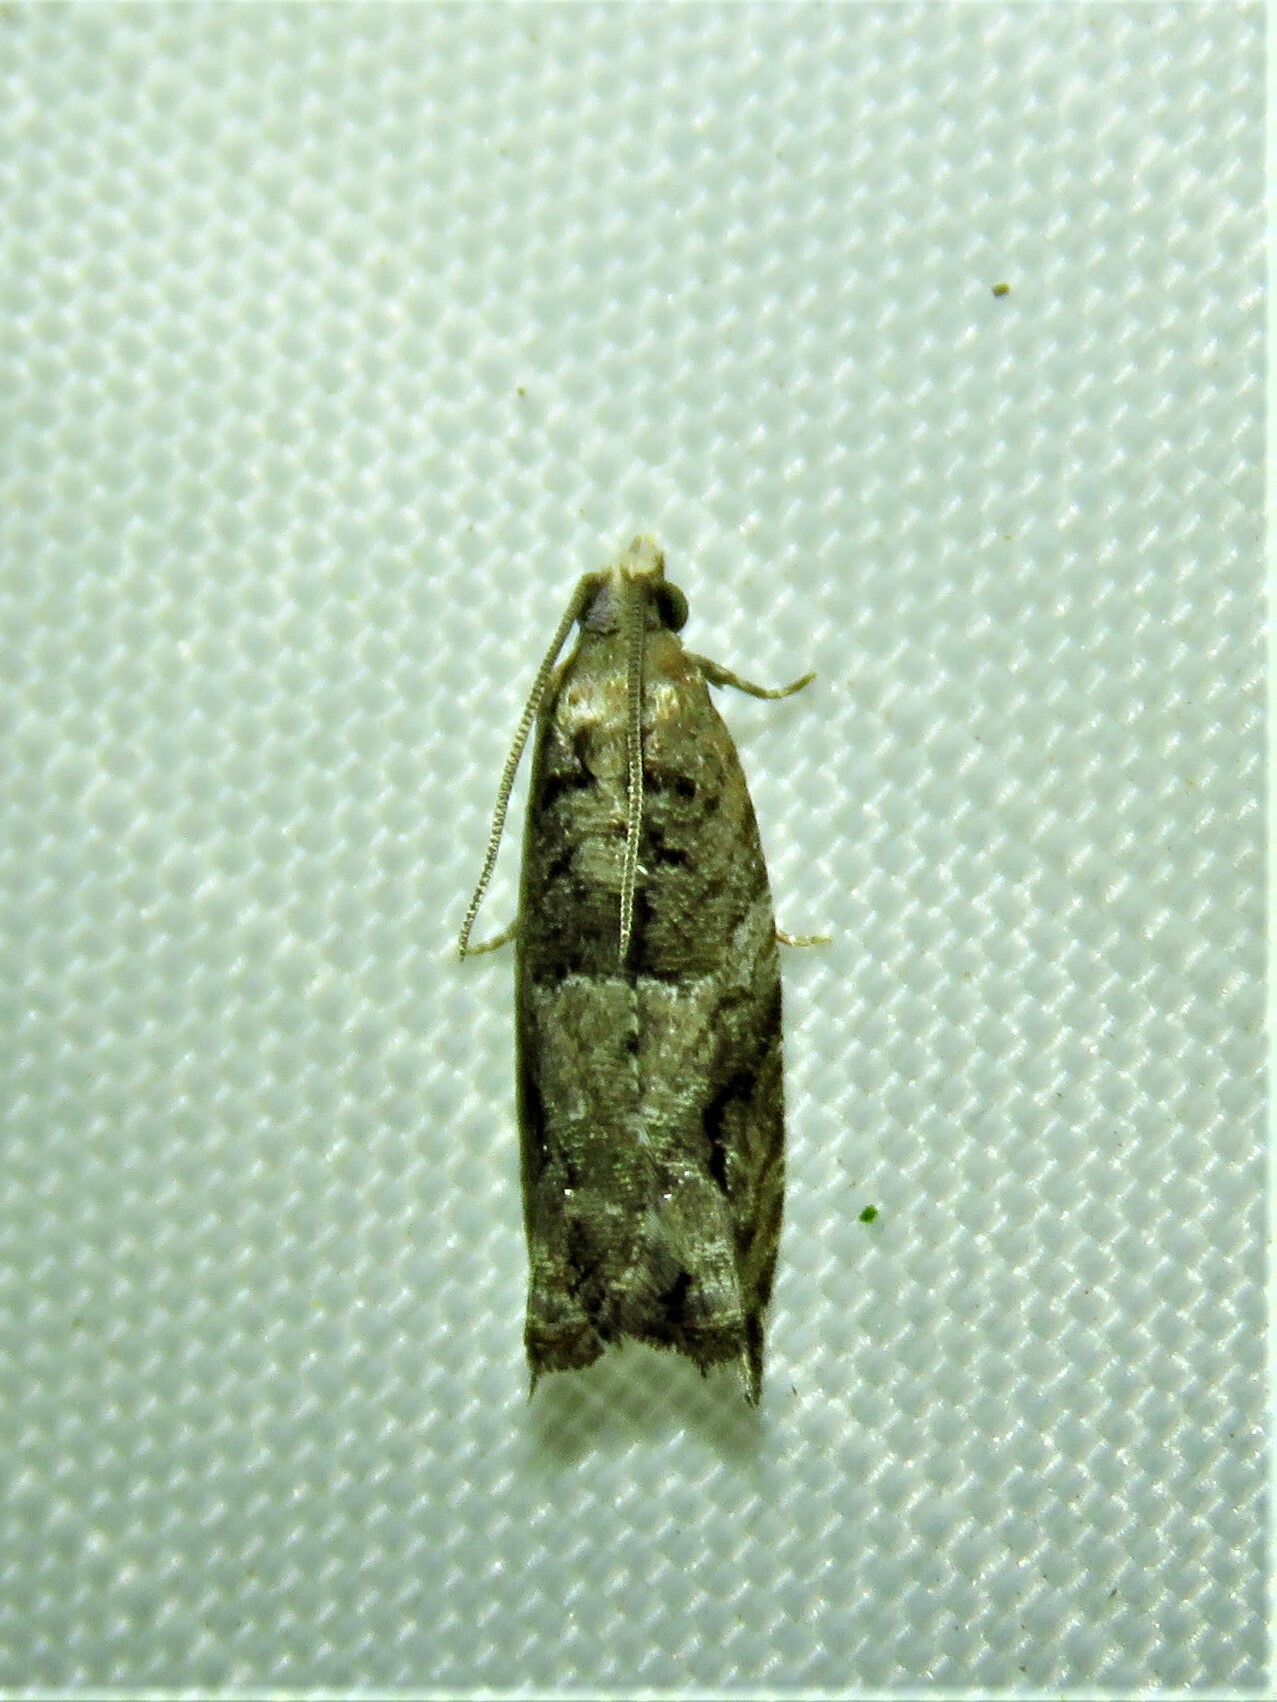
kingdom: Animalia
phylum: Arthropoda
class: Insecta
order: Lepidoptera
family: Tortricidae
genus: Rhopobota
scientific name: Rhopobota naevana
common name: Blackheaded fireworm, holly tortrix
